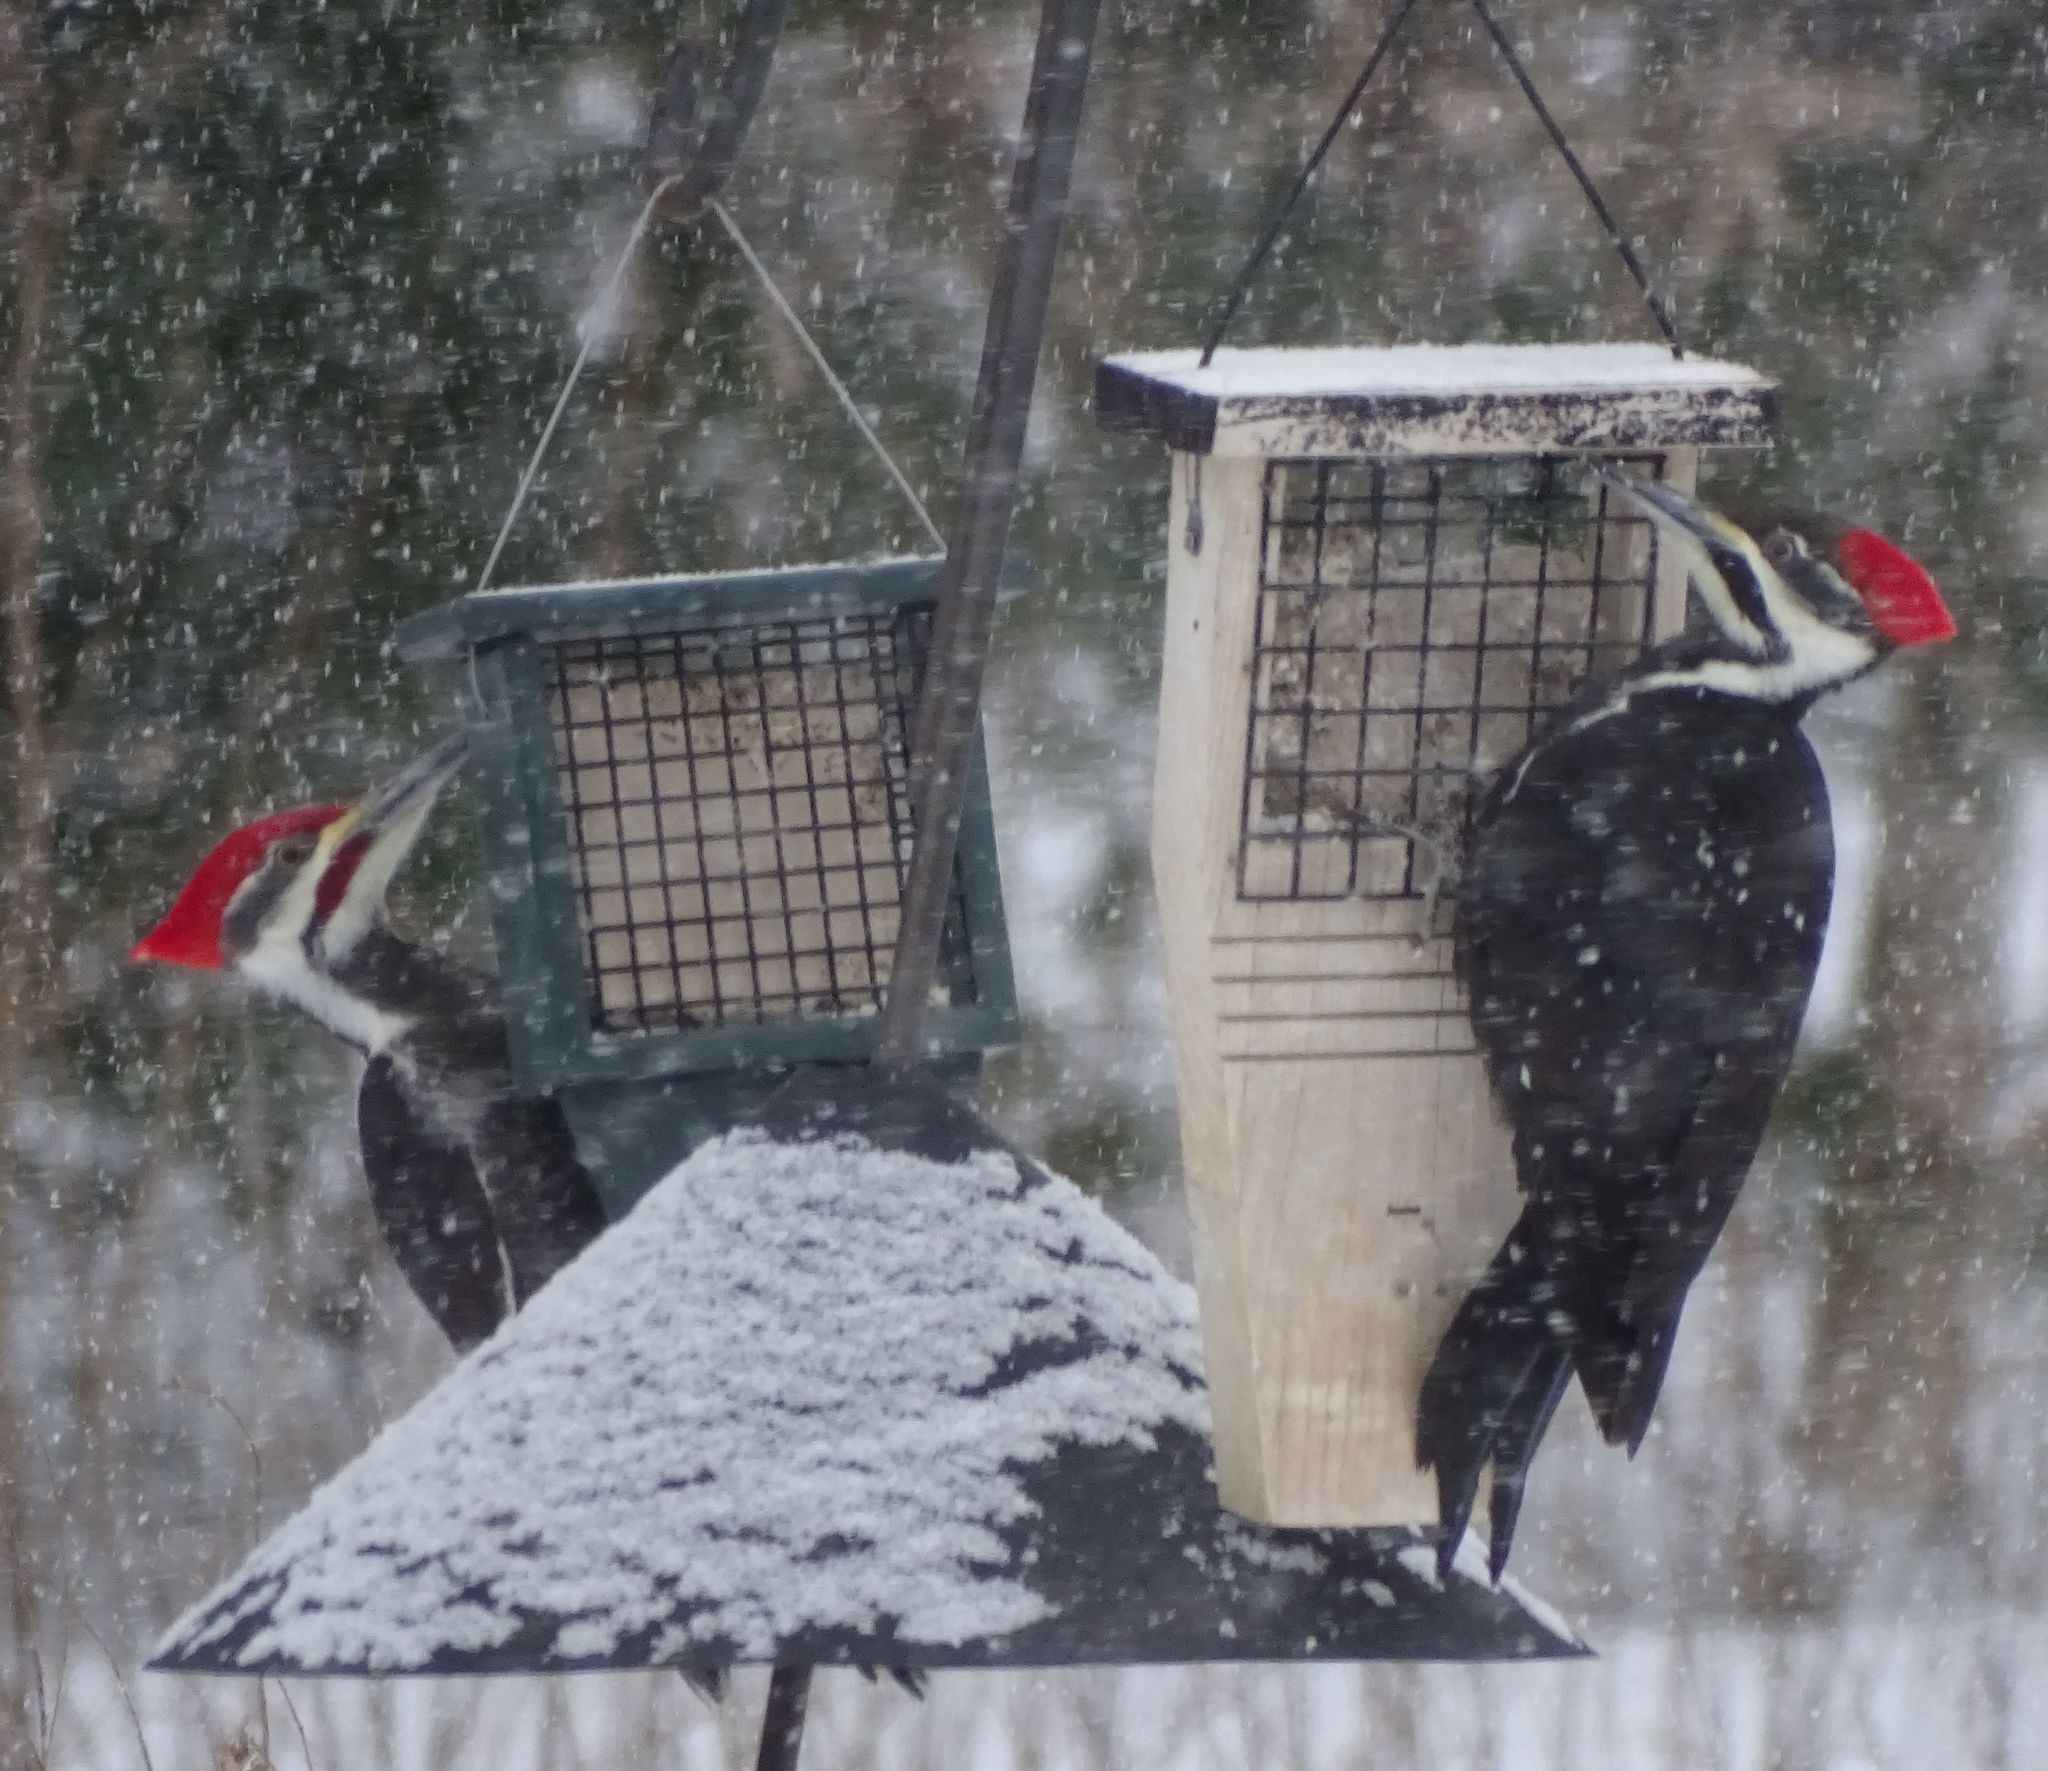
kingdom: Animalia
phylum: Chordata
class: Aves
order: Piciformes
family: Picidae
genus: Dryocopus
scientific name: Dryocopus pileatus
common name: Pileated woodpecker
